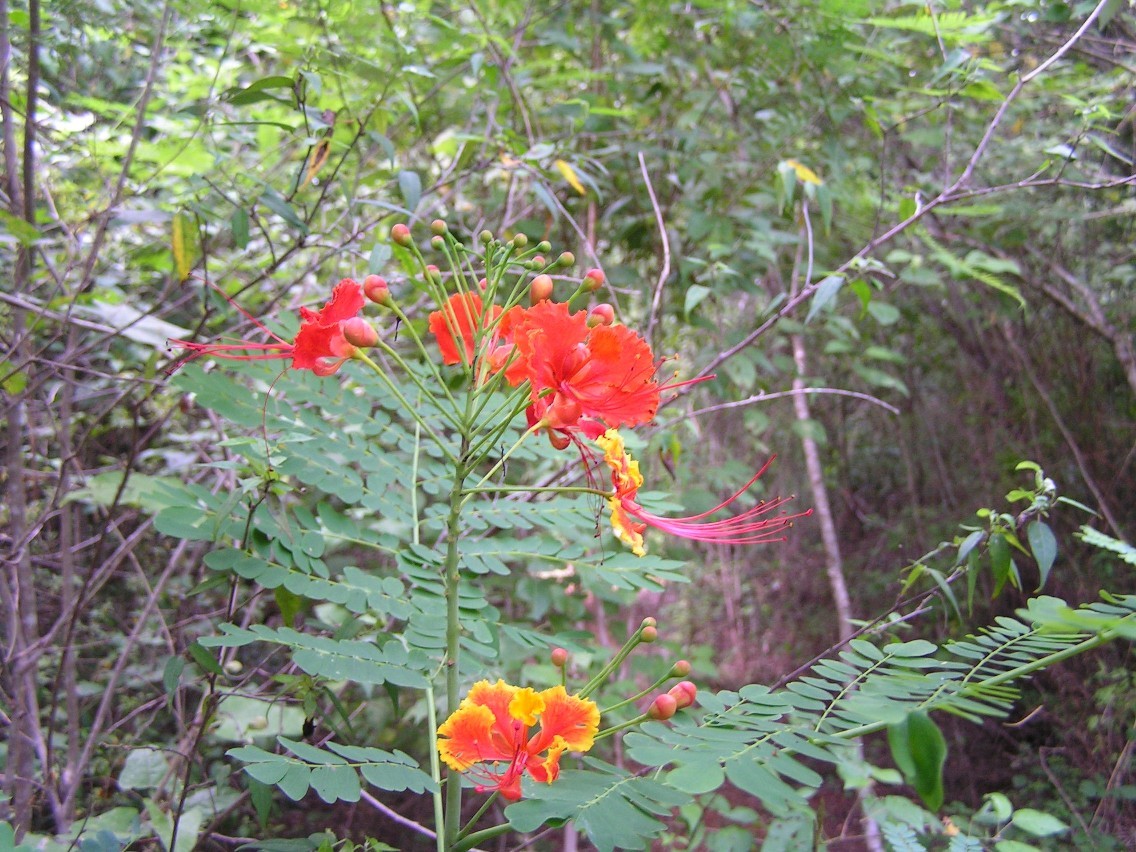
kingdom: Plantae
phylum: Tracheophyta
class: Magnoliopsida
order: Fabales
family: Fabaceae
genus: Caesalpinia
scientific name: Caesalpinia pulcherrima
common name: Pride-of-barbados
